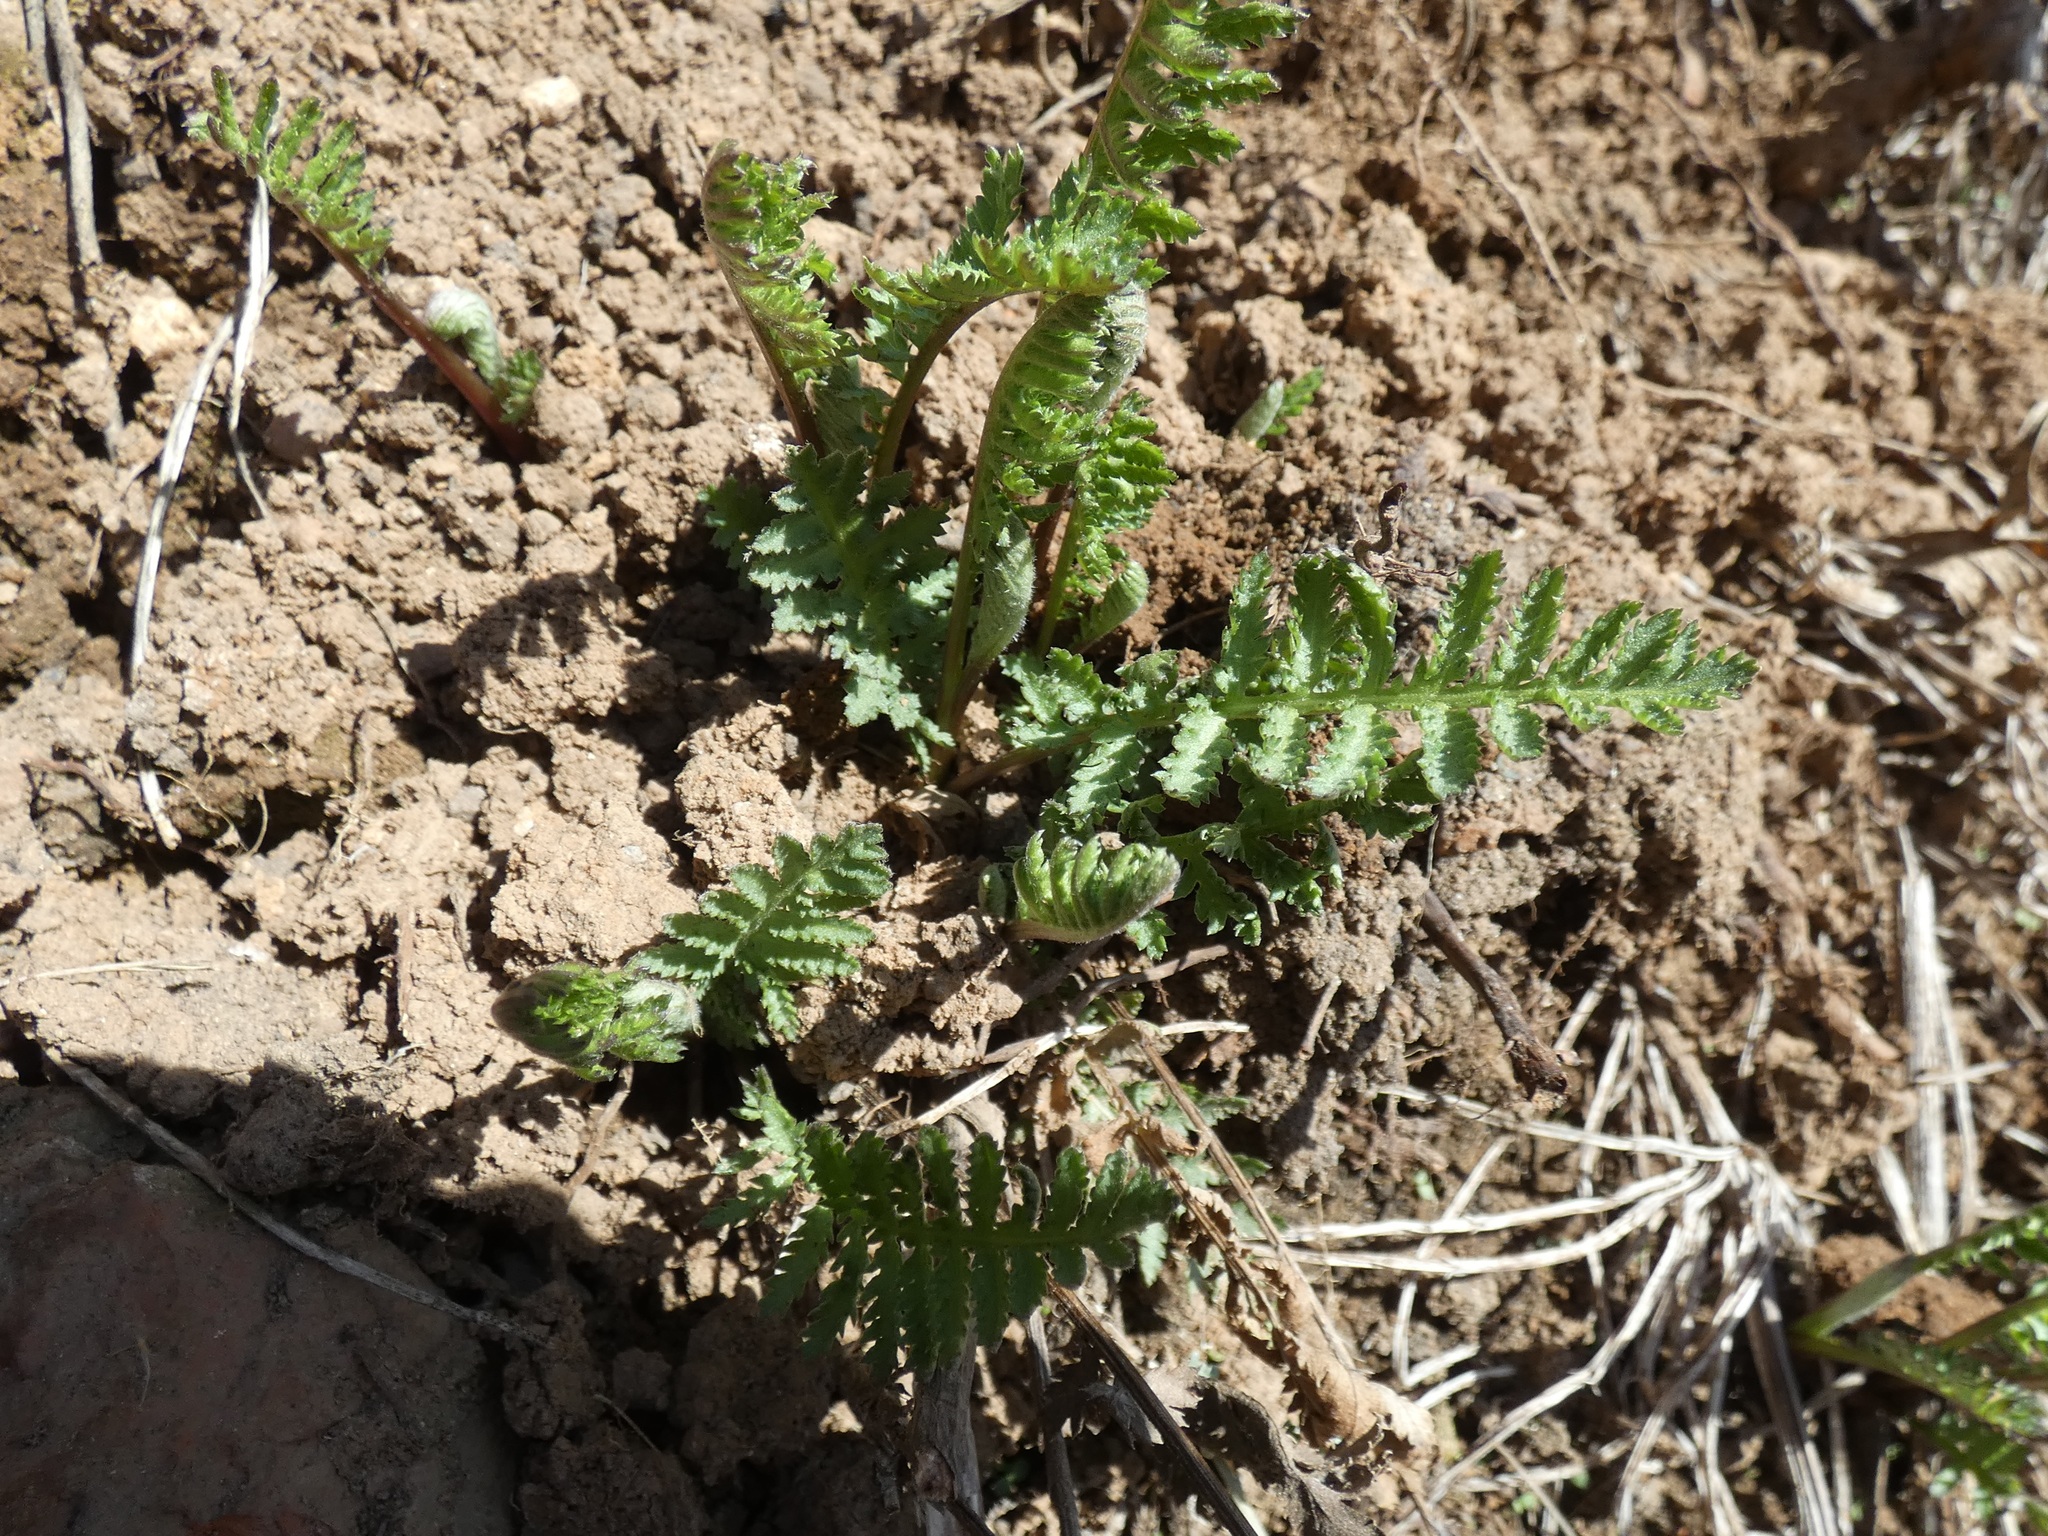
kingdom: Plantae
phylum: Tracheophyta
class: Magnoliopsida
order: Asterales
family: Asteraceae
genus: Tanacetum
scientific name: Tanacetum vulgare
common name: Common tansy
